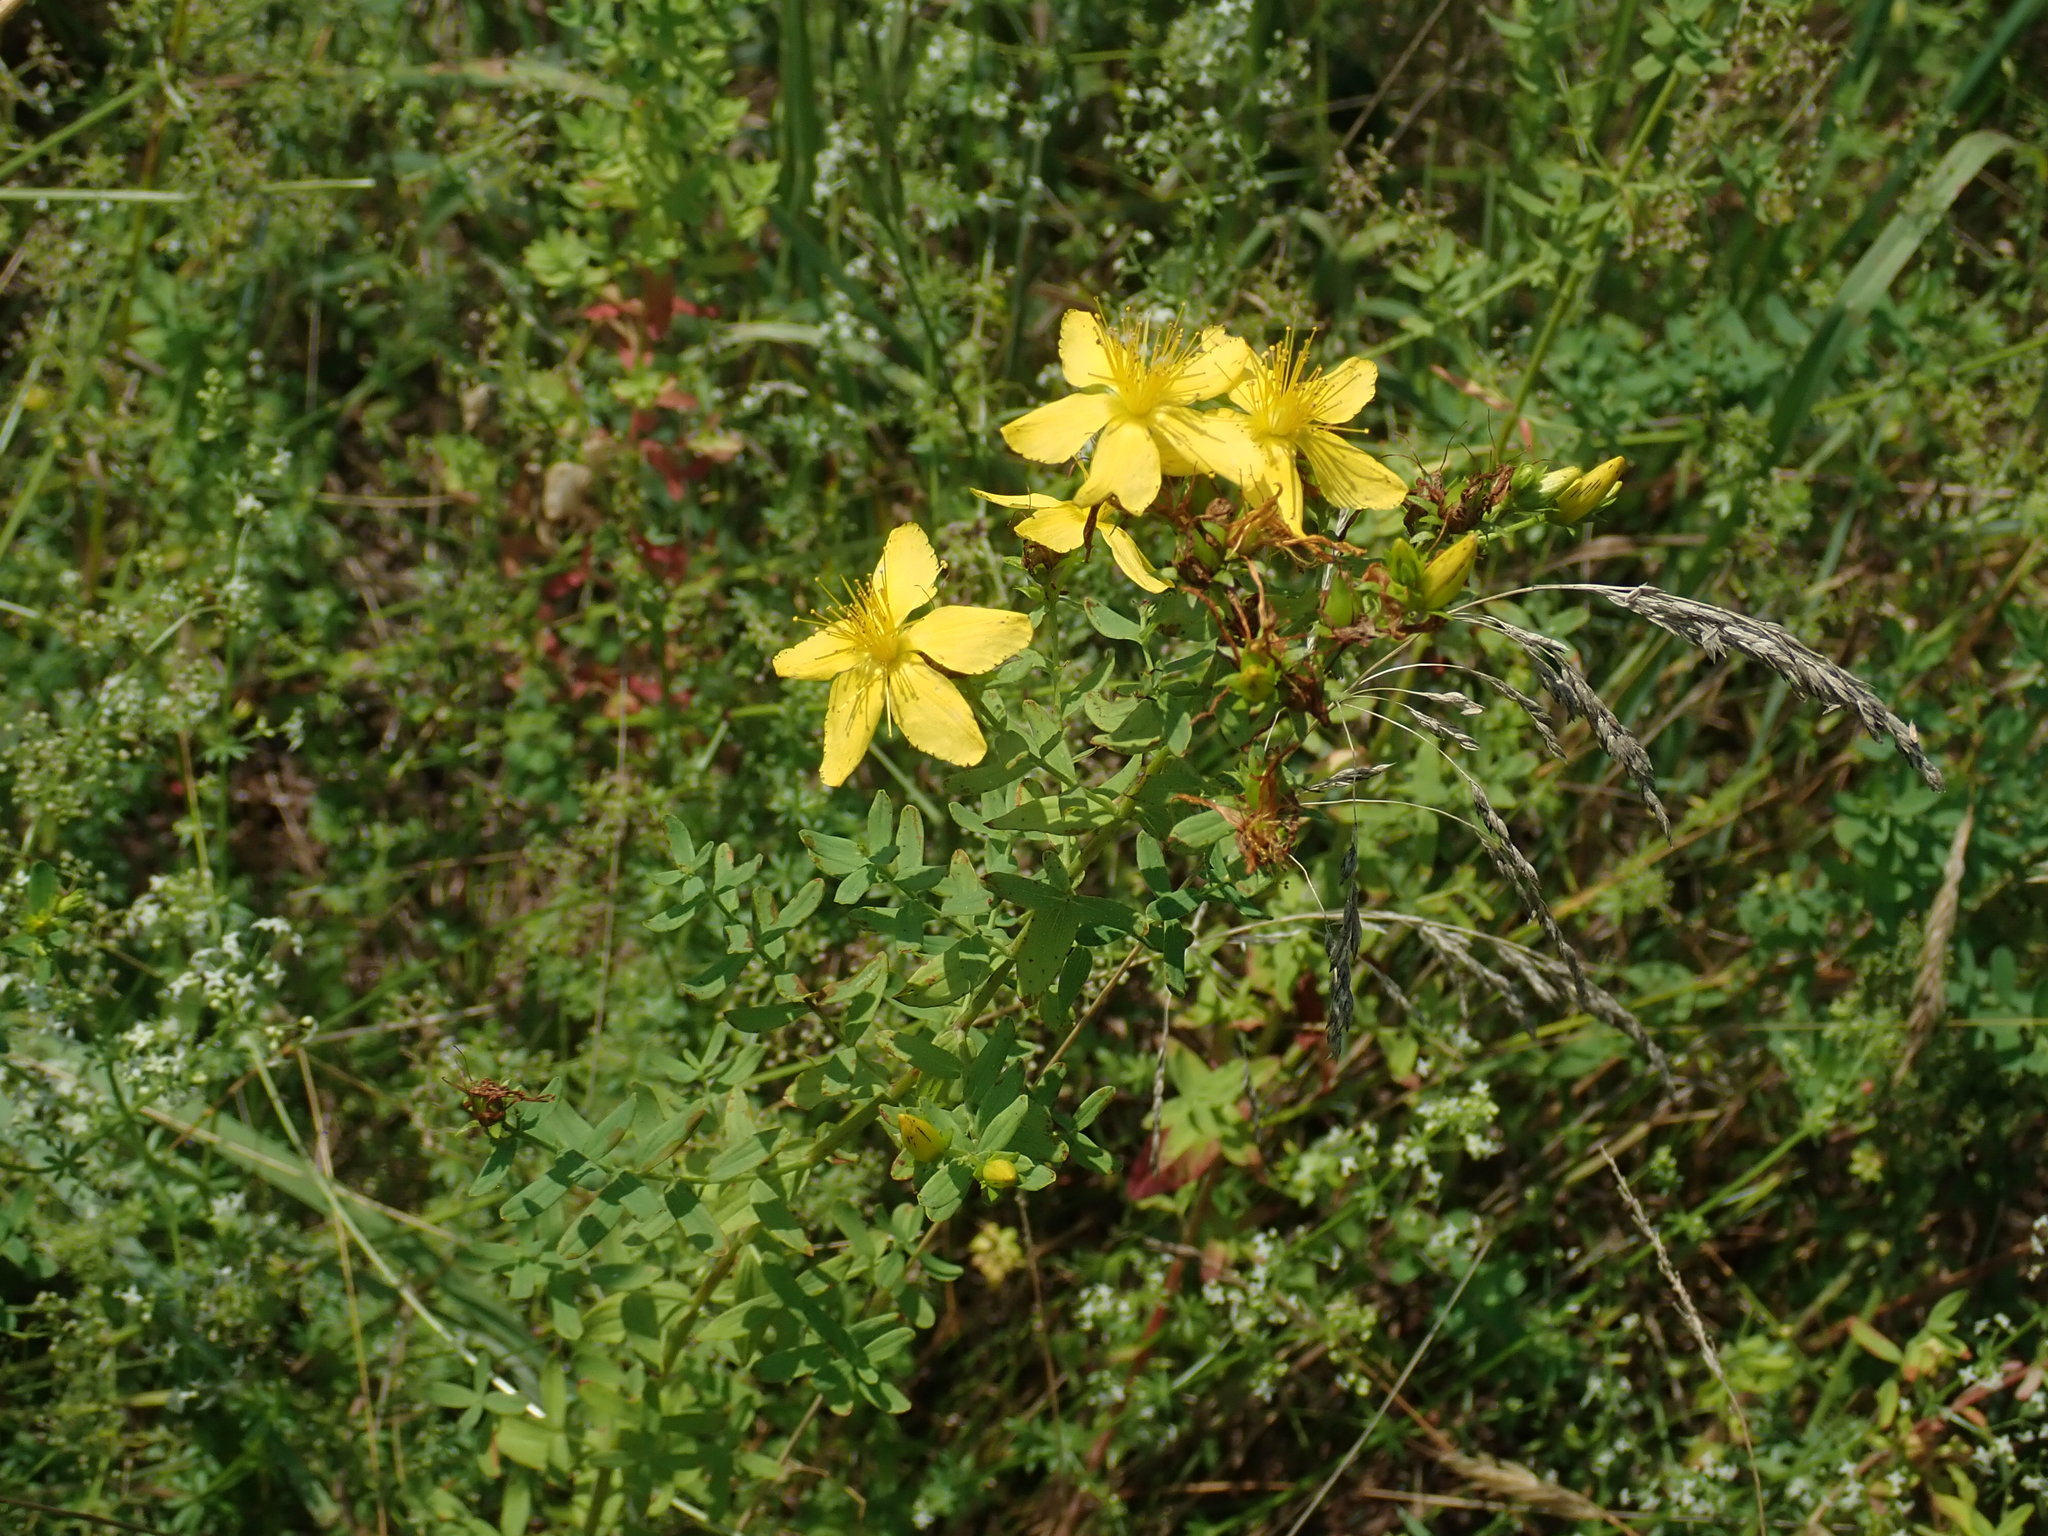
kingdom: Plantae
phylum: Tracheophyta
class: Magnoliopsida
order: Malpighiales
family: Hypericaceae
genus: Hypericum
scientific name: Hypericum perforatum
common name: Common st. johnswort
